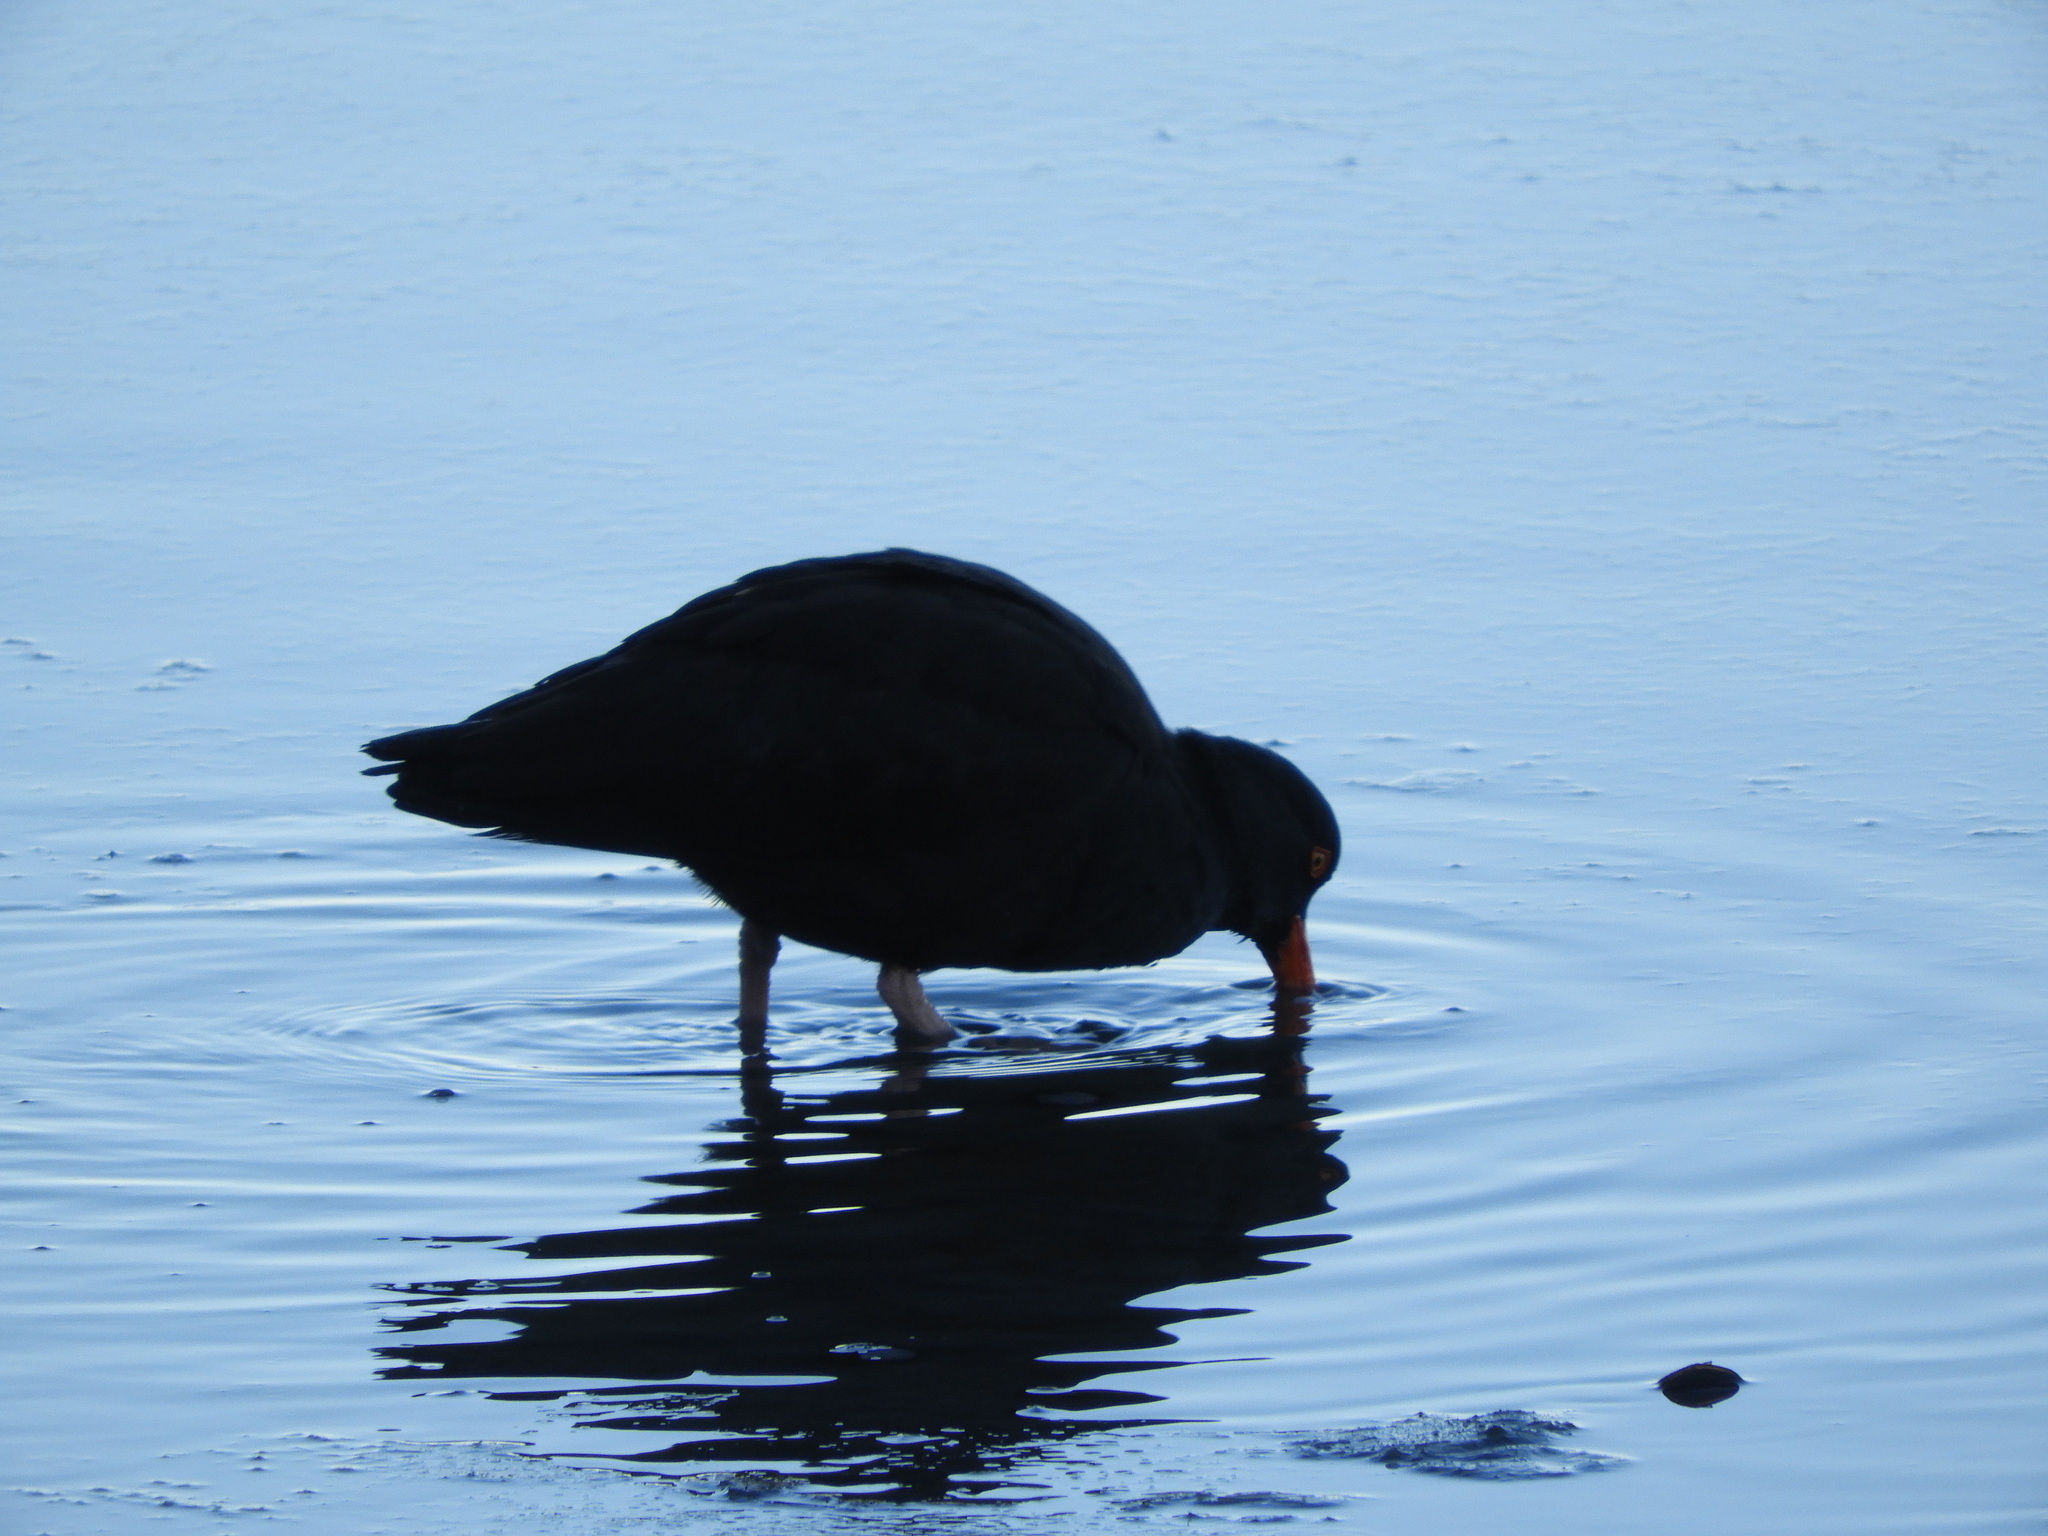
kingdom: Animalia
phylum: Chordata
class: Aves
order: Charadriiformes
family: Haematopodidae
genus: Haematopus
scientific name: Haematopus bachmani
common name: Black oystercatcher
